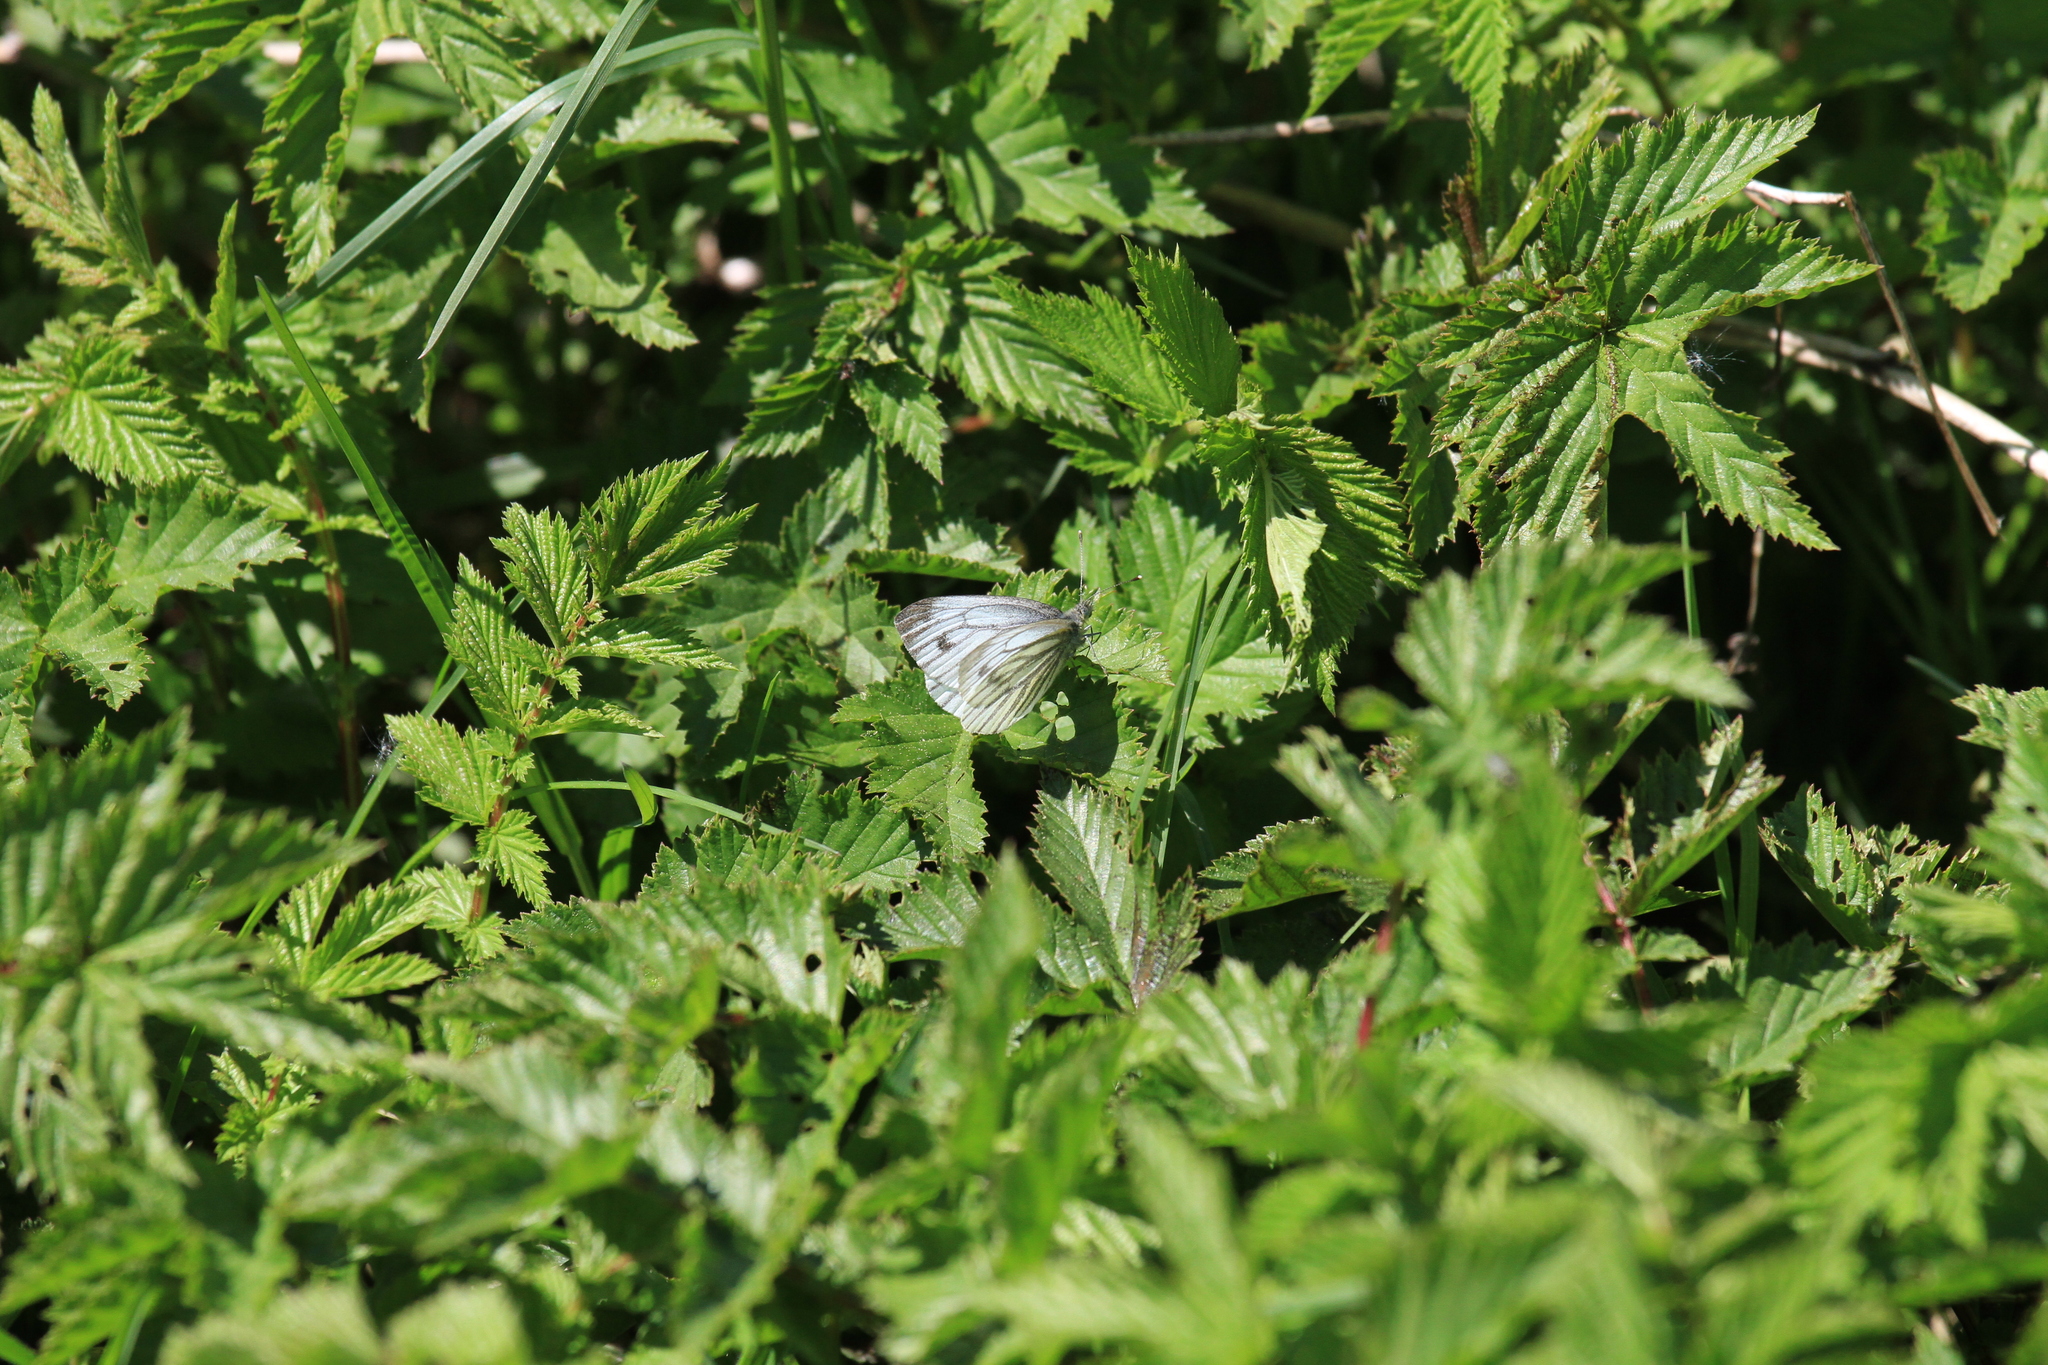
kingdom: Animalia
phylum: Arthropoda
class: Insecta
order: Lepidoptera
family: Pieridae
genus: Pieris
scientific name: Pieris napi
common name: Green-veined white
